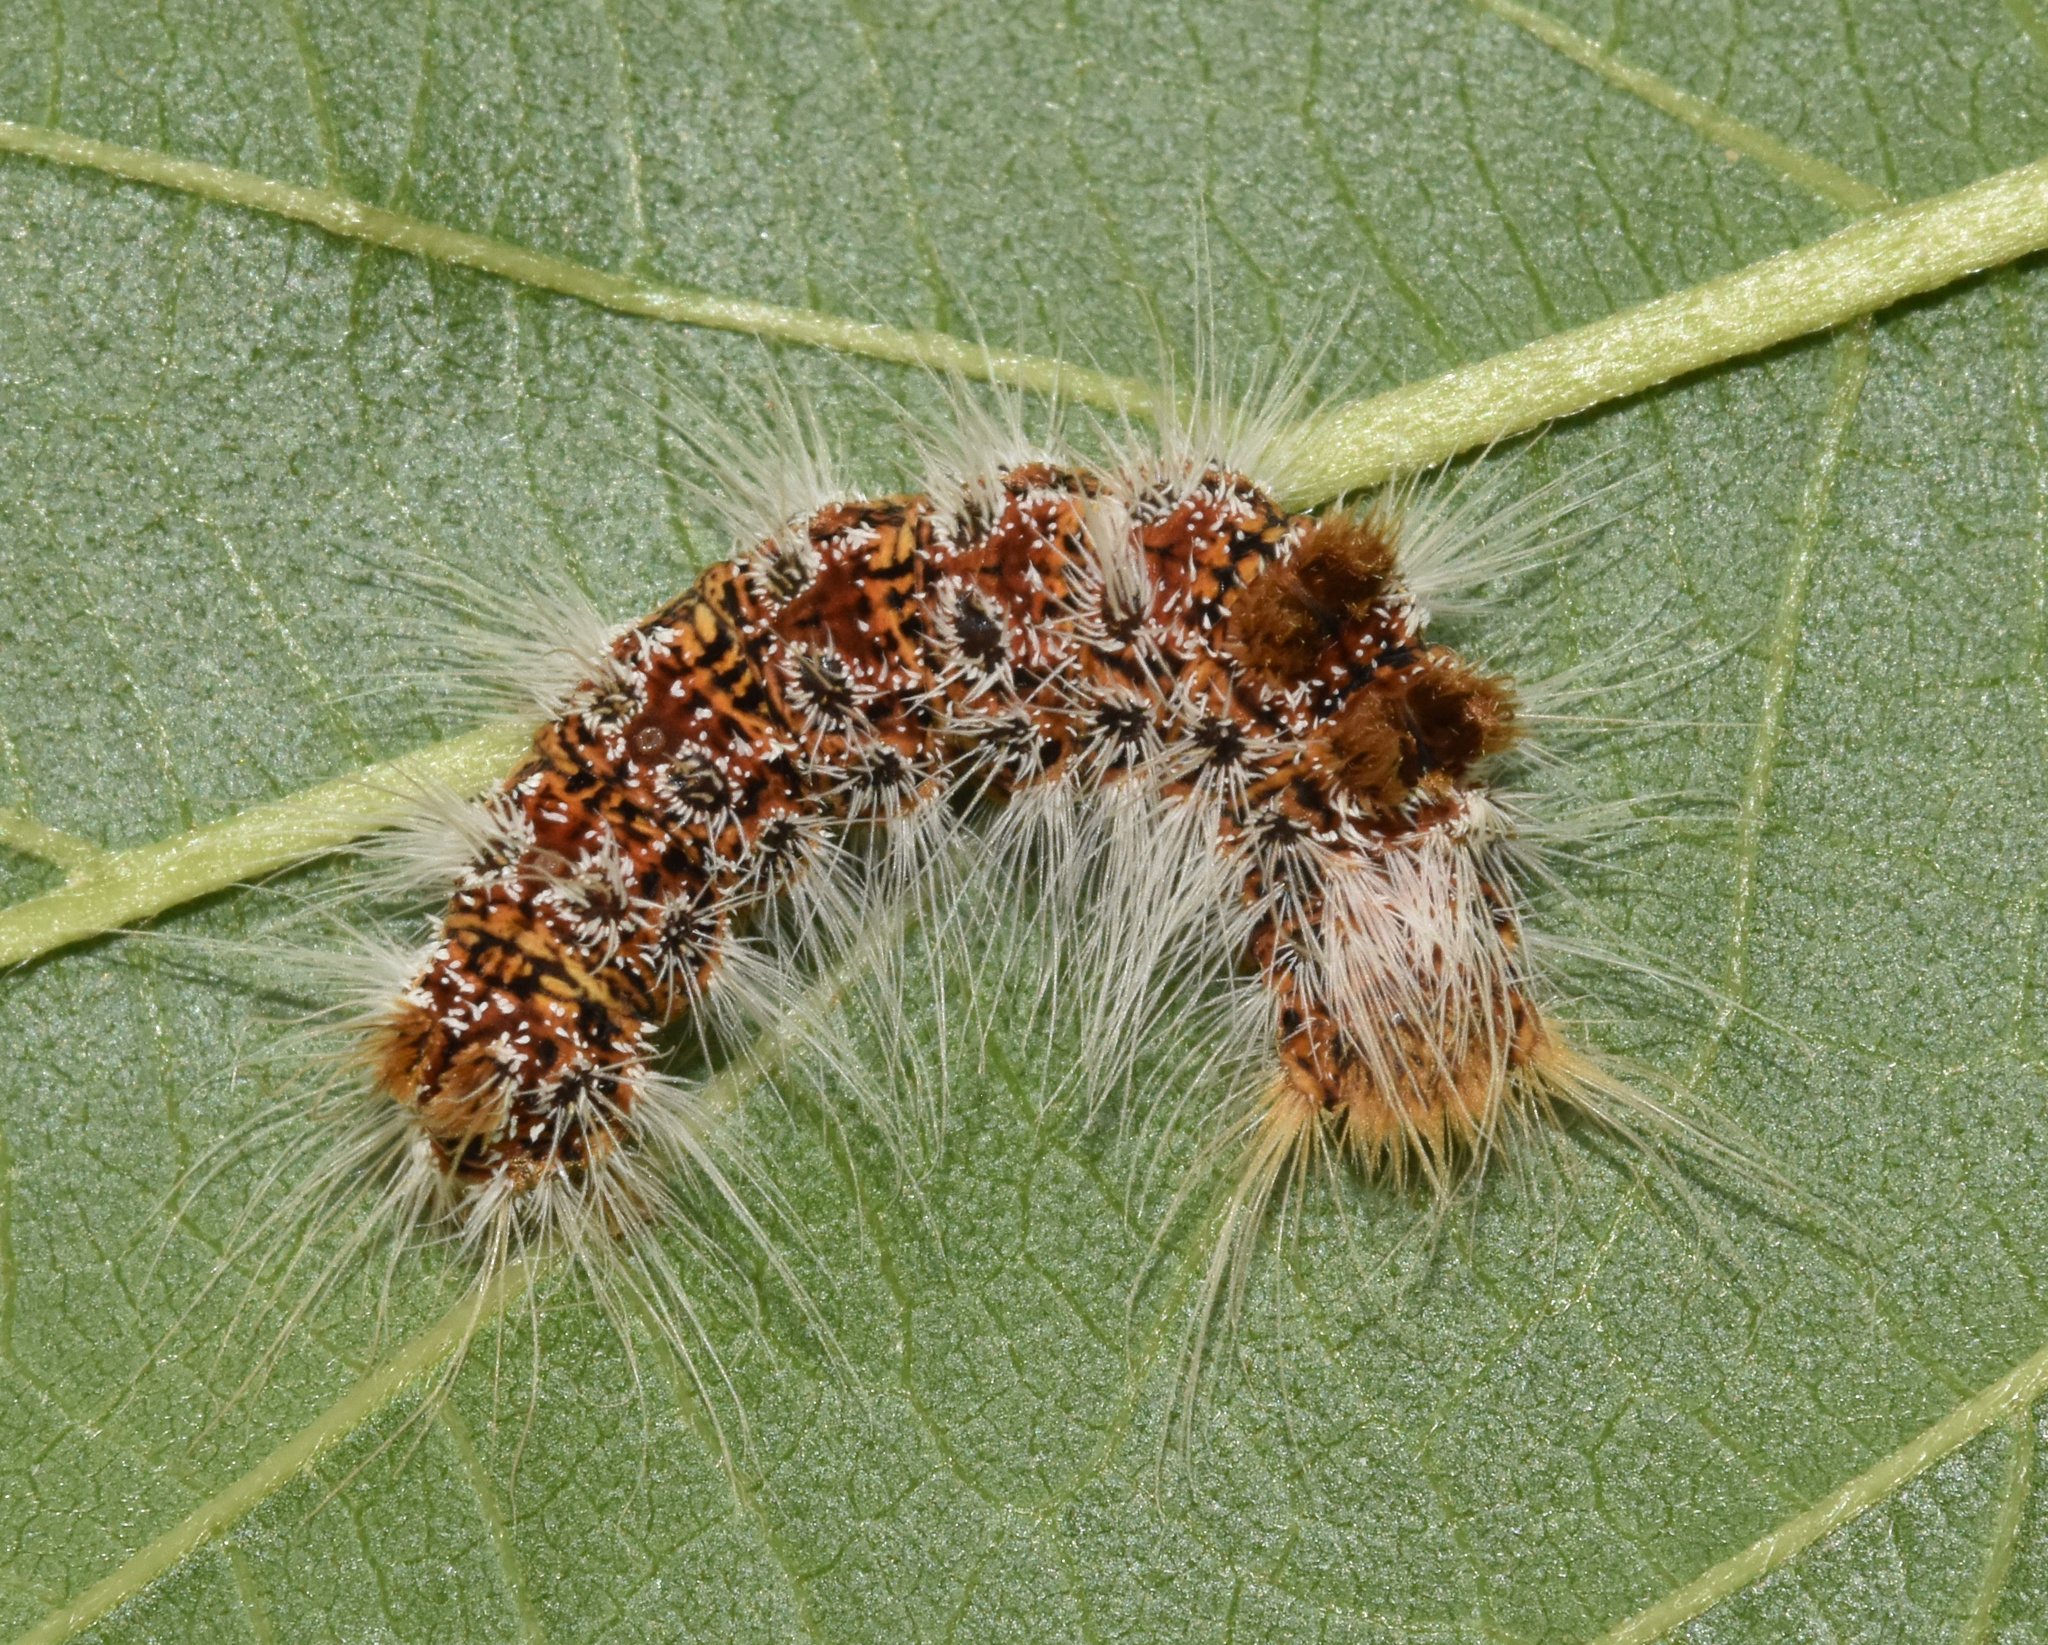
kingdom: Animalia
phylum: Arthropoda
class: Insecta
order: Lepidoptera
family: Erebidae
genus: Euproctis
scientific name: Euproctis rufopunctata
